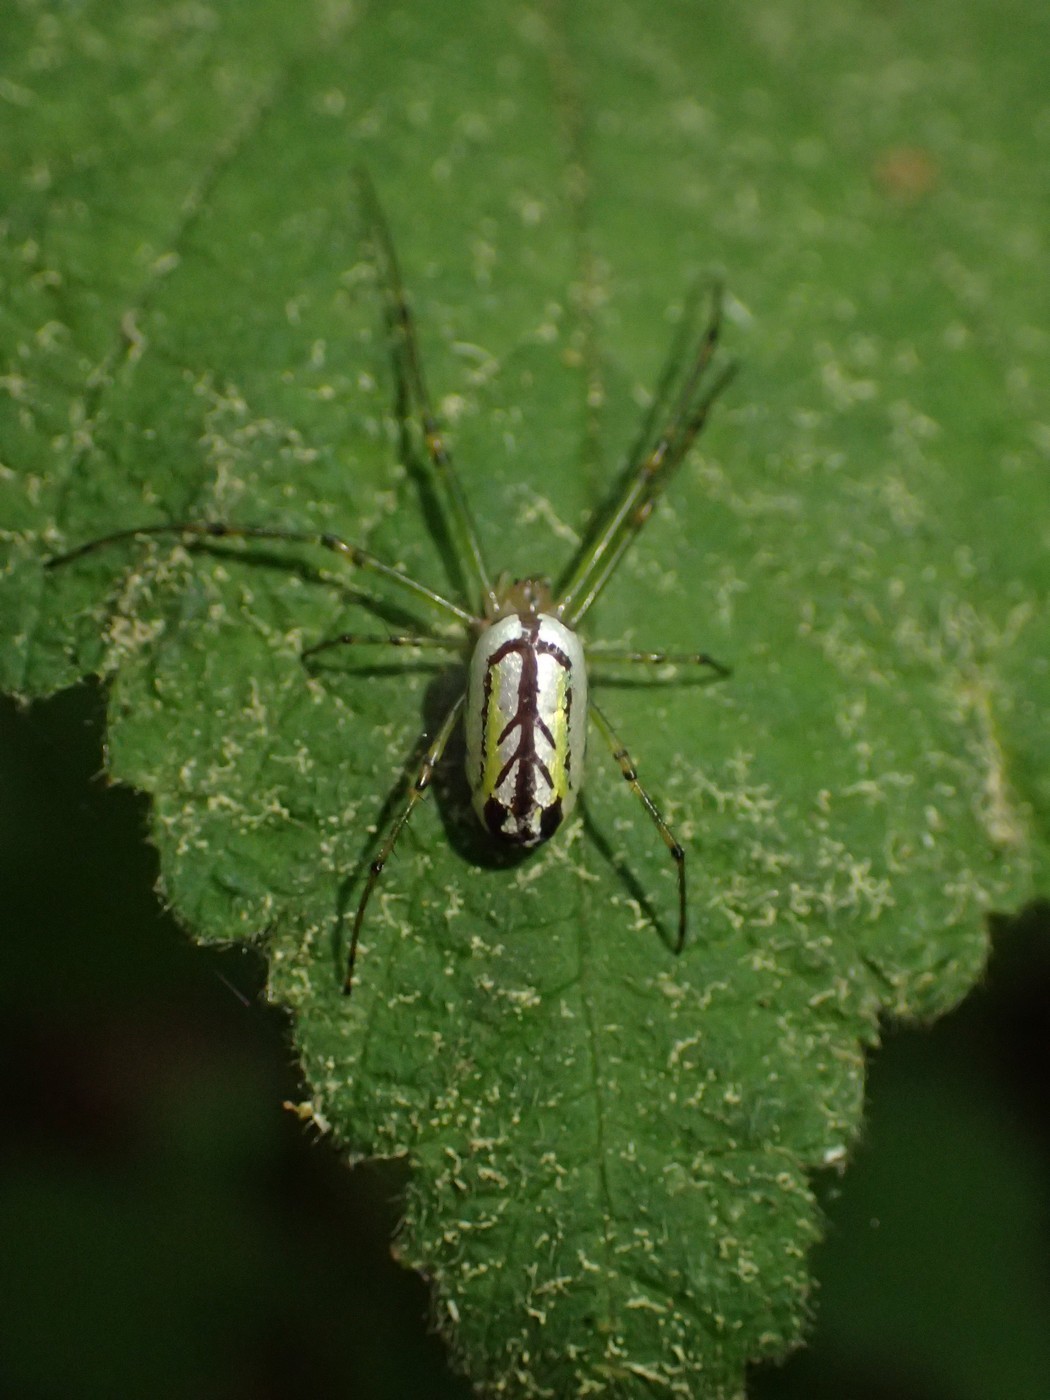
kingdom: Animalia
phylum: Arthropoda
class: Arachnida
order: Araneae
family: Tetragnathidae
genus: Leucauge
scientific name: Leucauge venusta
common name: Longjawed orb weavers
